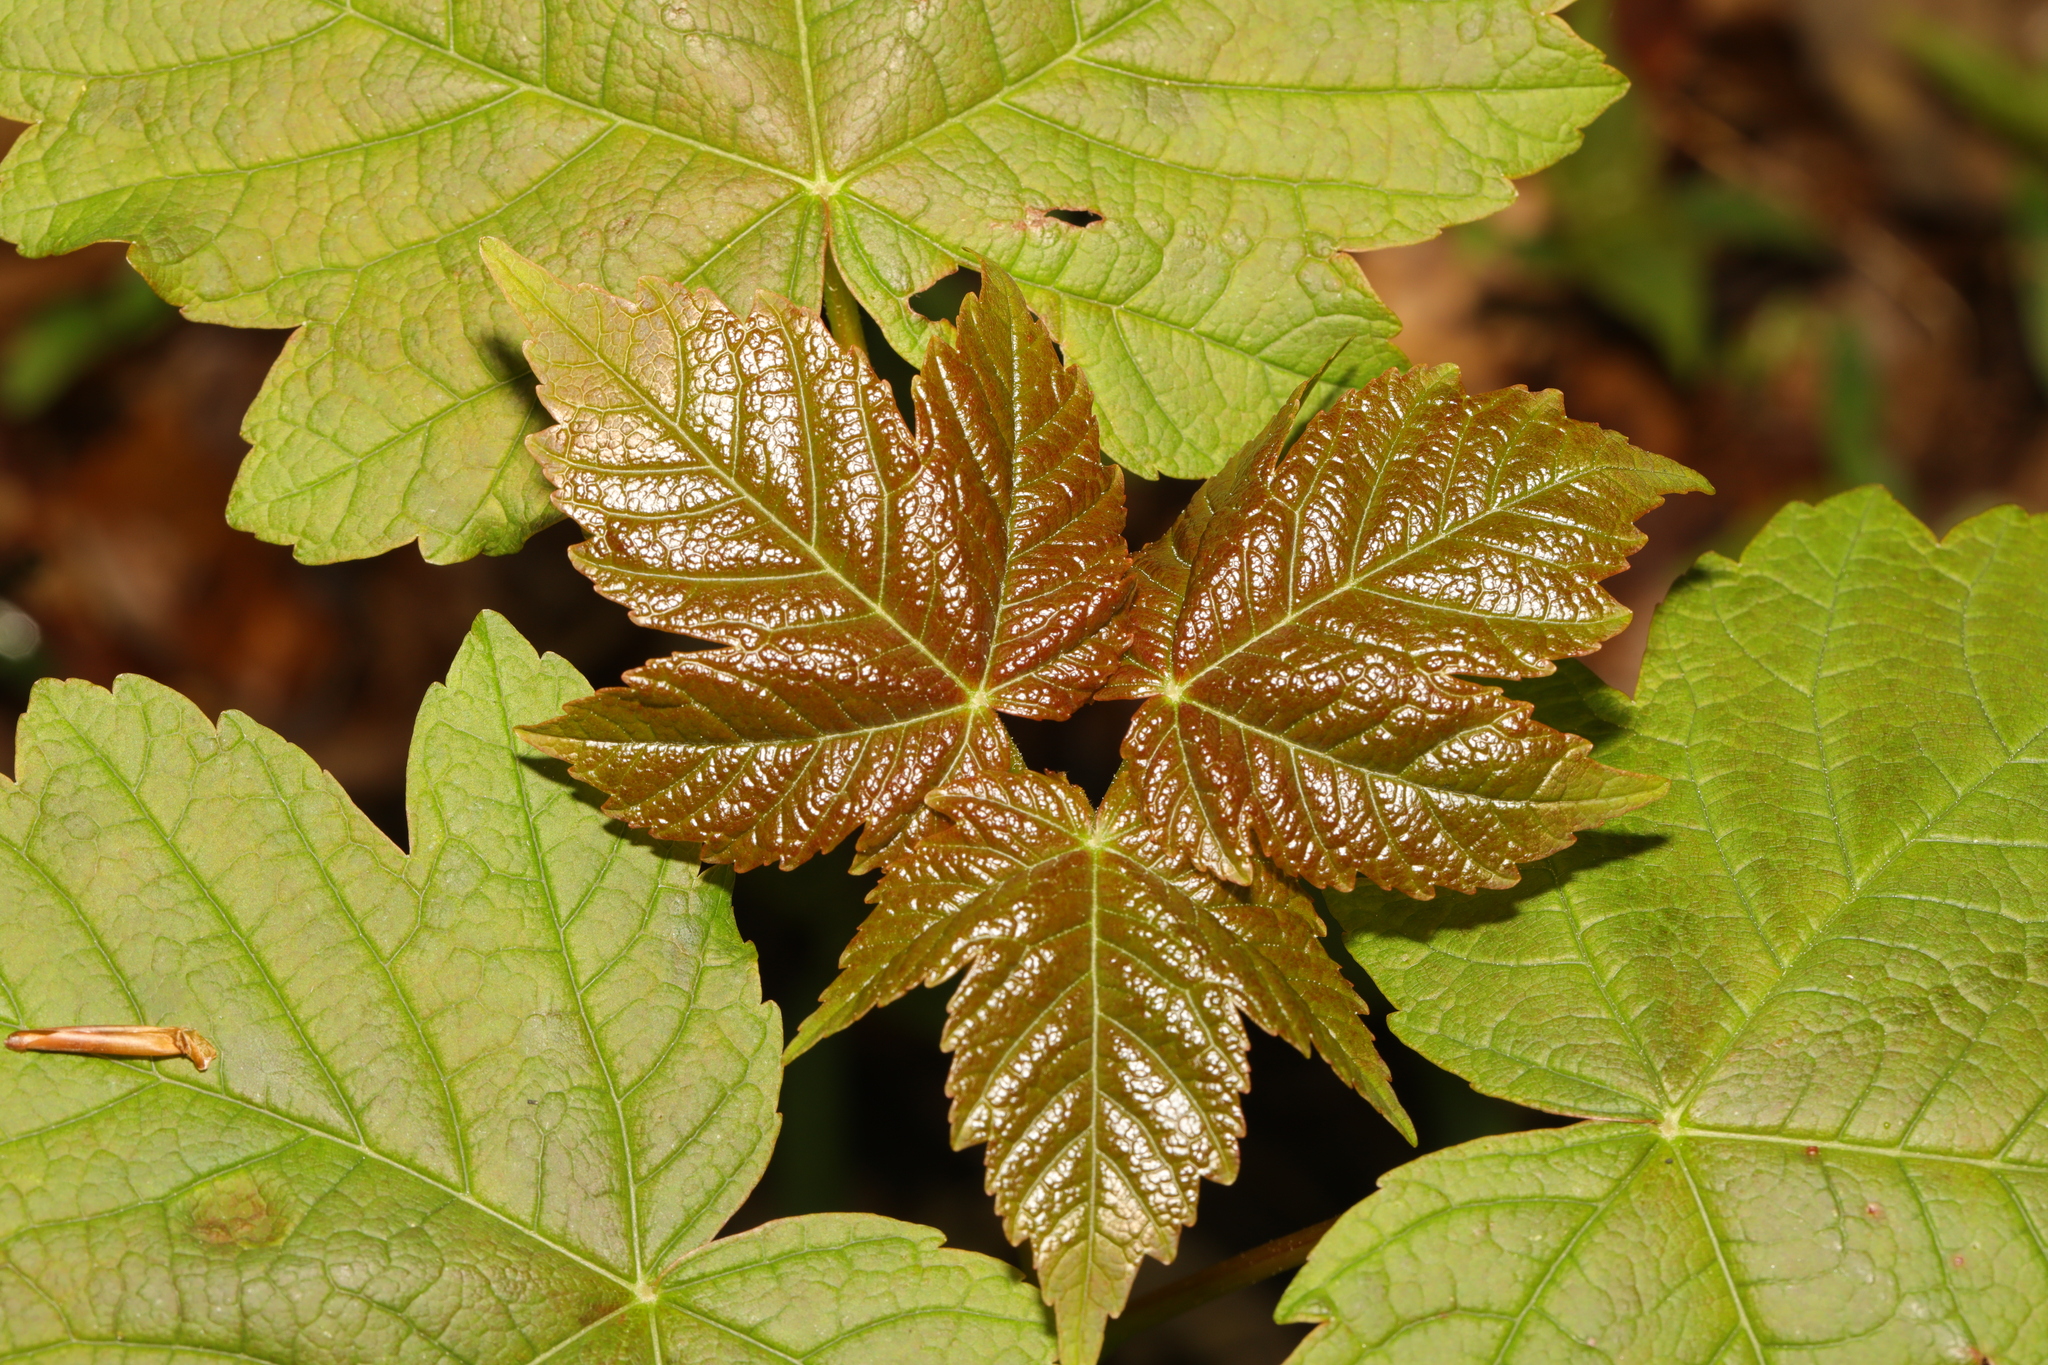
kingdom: Plantae
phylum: Tracheophyta
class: Magnoliopsida
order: Sapindales
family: Sapindaceae
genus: Acer
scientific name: Acer pseudoplatanus
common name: Sycamore
